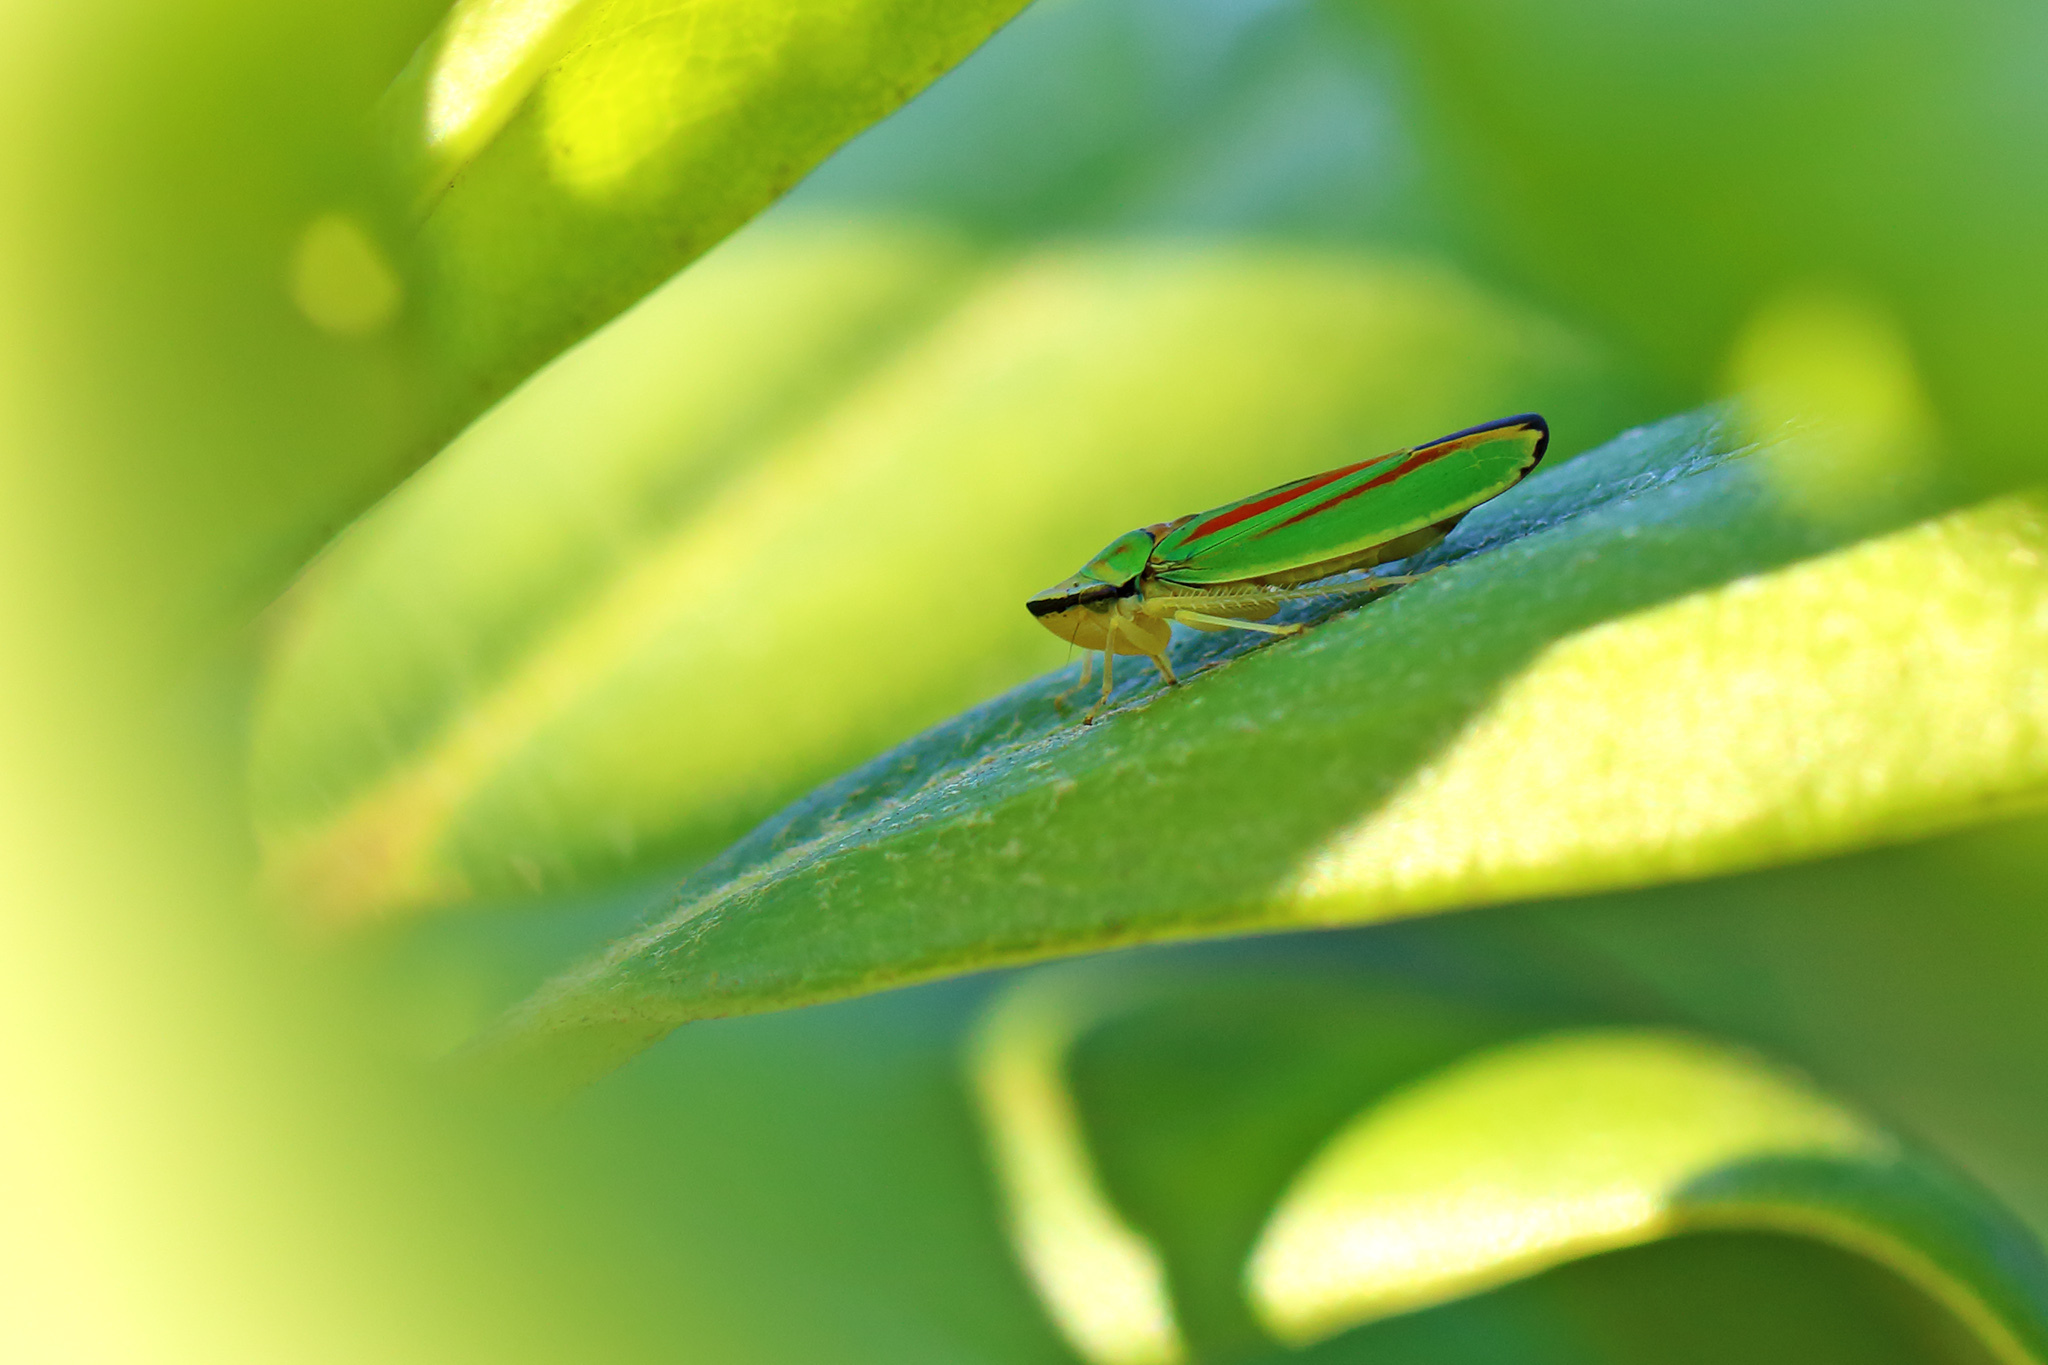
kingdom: Animalia
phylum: Arthropoda
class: Insecta
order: Hemiptera
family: Cicadellidae
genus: Graphocephala
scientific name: Graphocephala fennahi
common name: Rhododendron leafhopper
